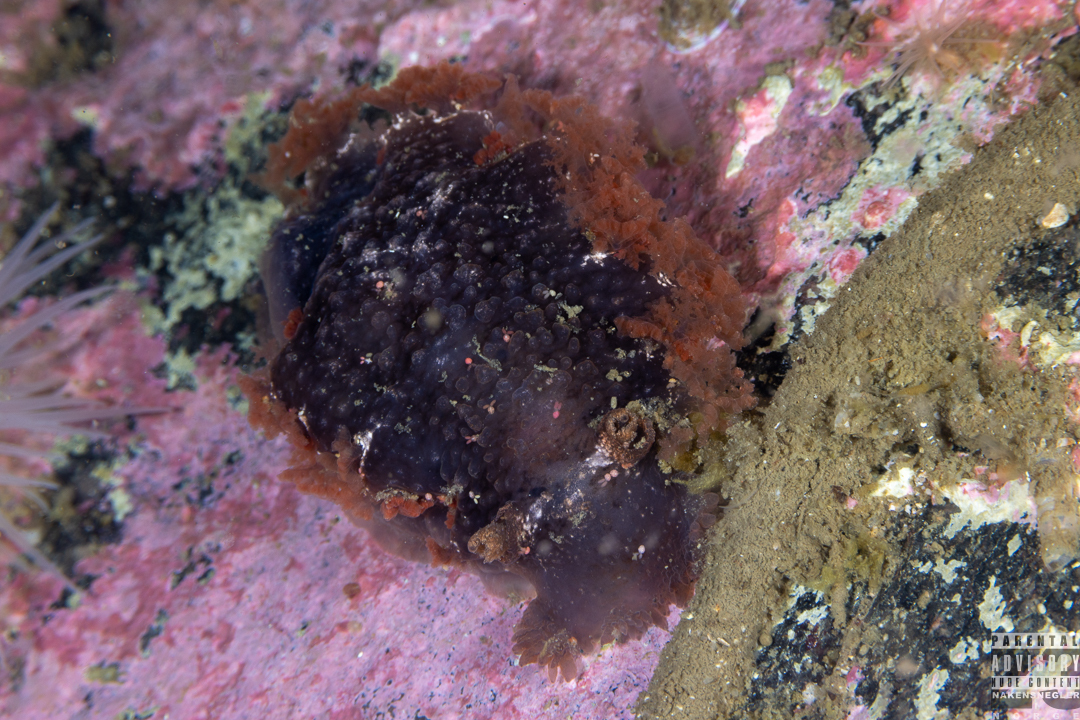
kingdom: Animalia
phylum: Mollusca
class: Gastropoda
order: Nudibranchia
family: Tritoniidae
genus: Tritonia
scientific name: Tritonia hombergii
